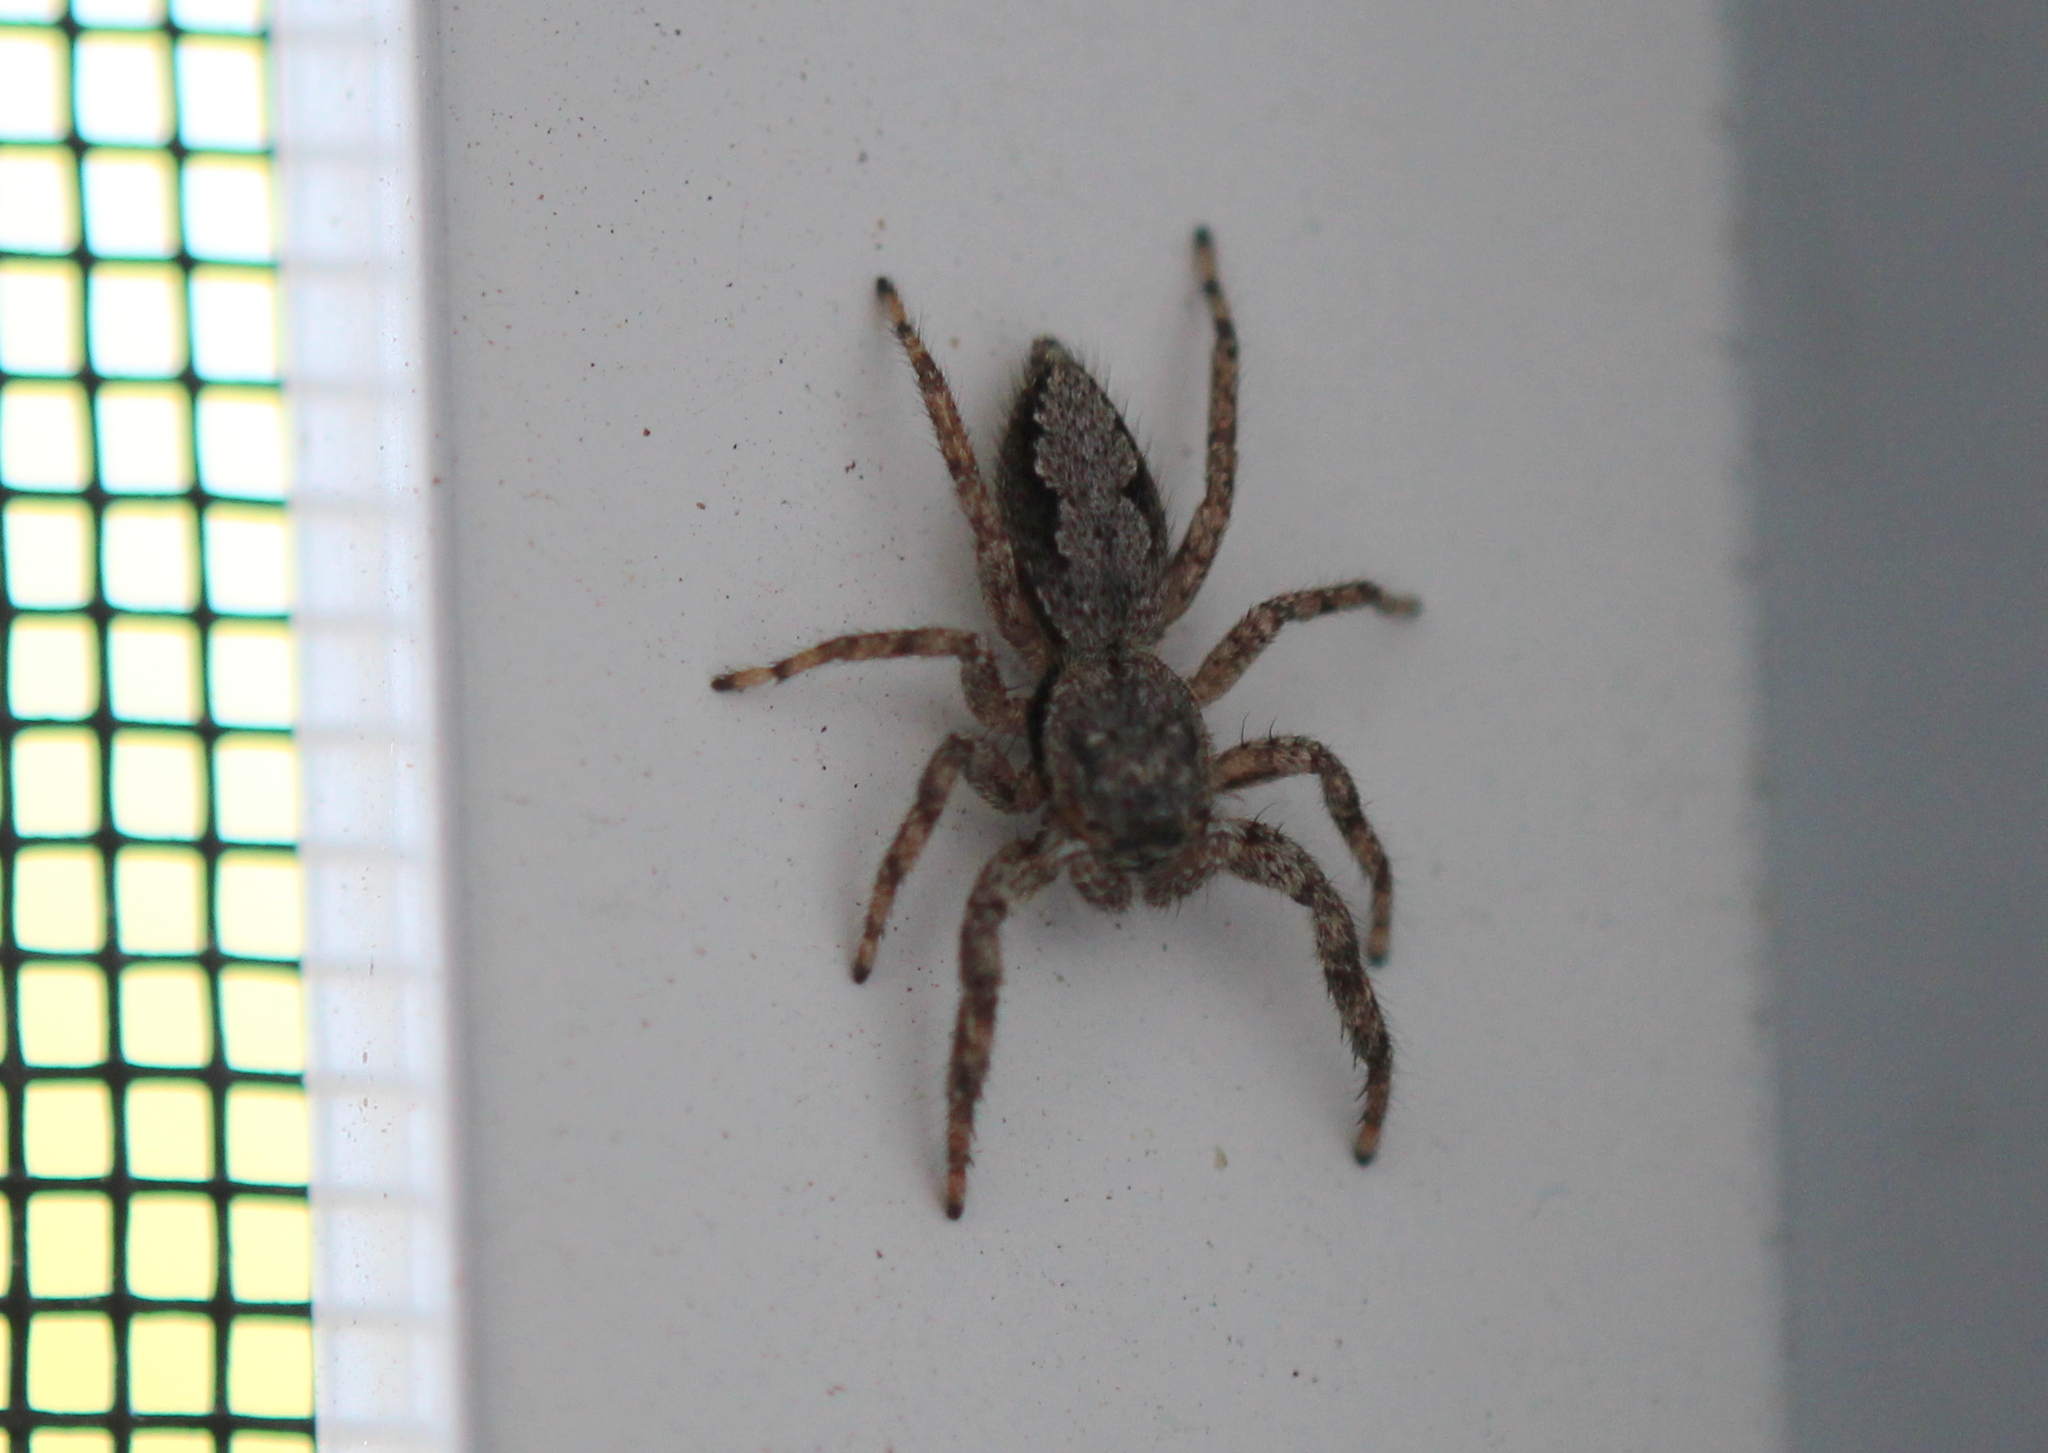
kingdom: Animalia
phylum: Arthropoda
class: Arachnida
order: Araneae
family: Salticidae
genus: Platycryptus
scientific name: Platycryptus undatus
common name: Tan jumping spider
